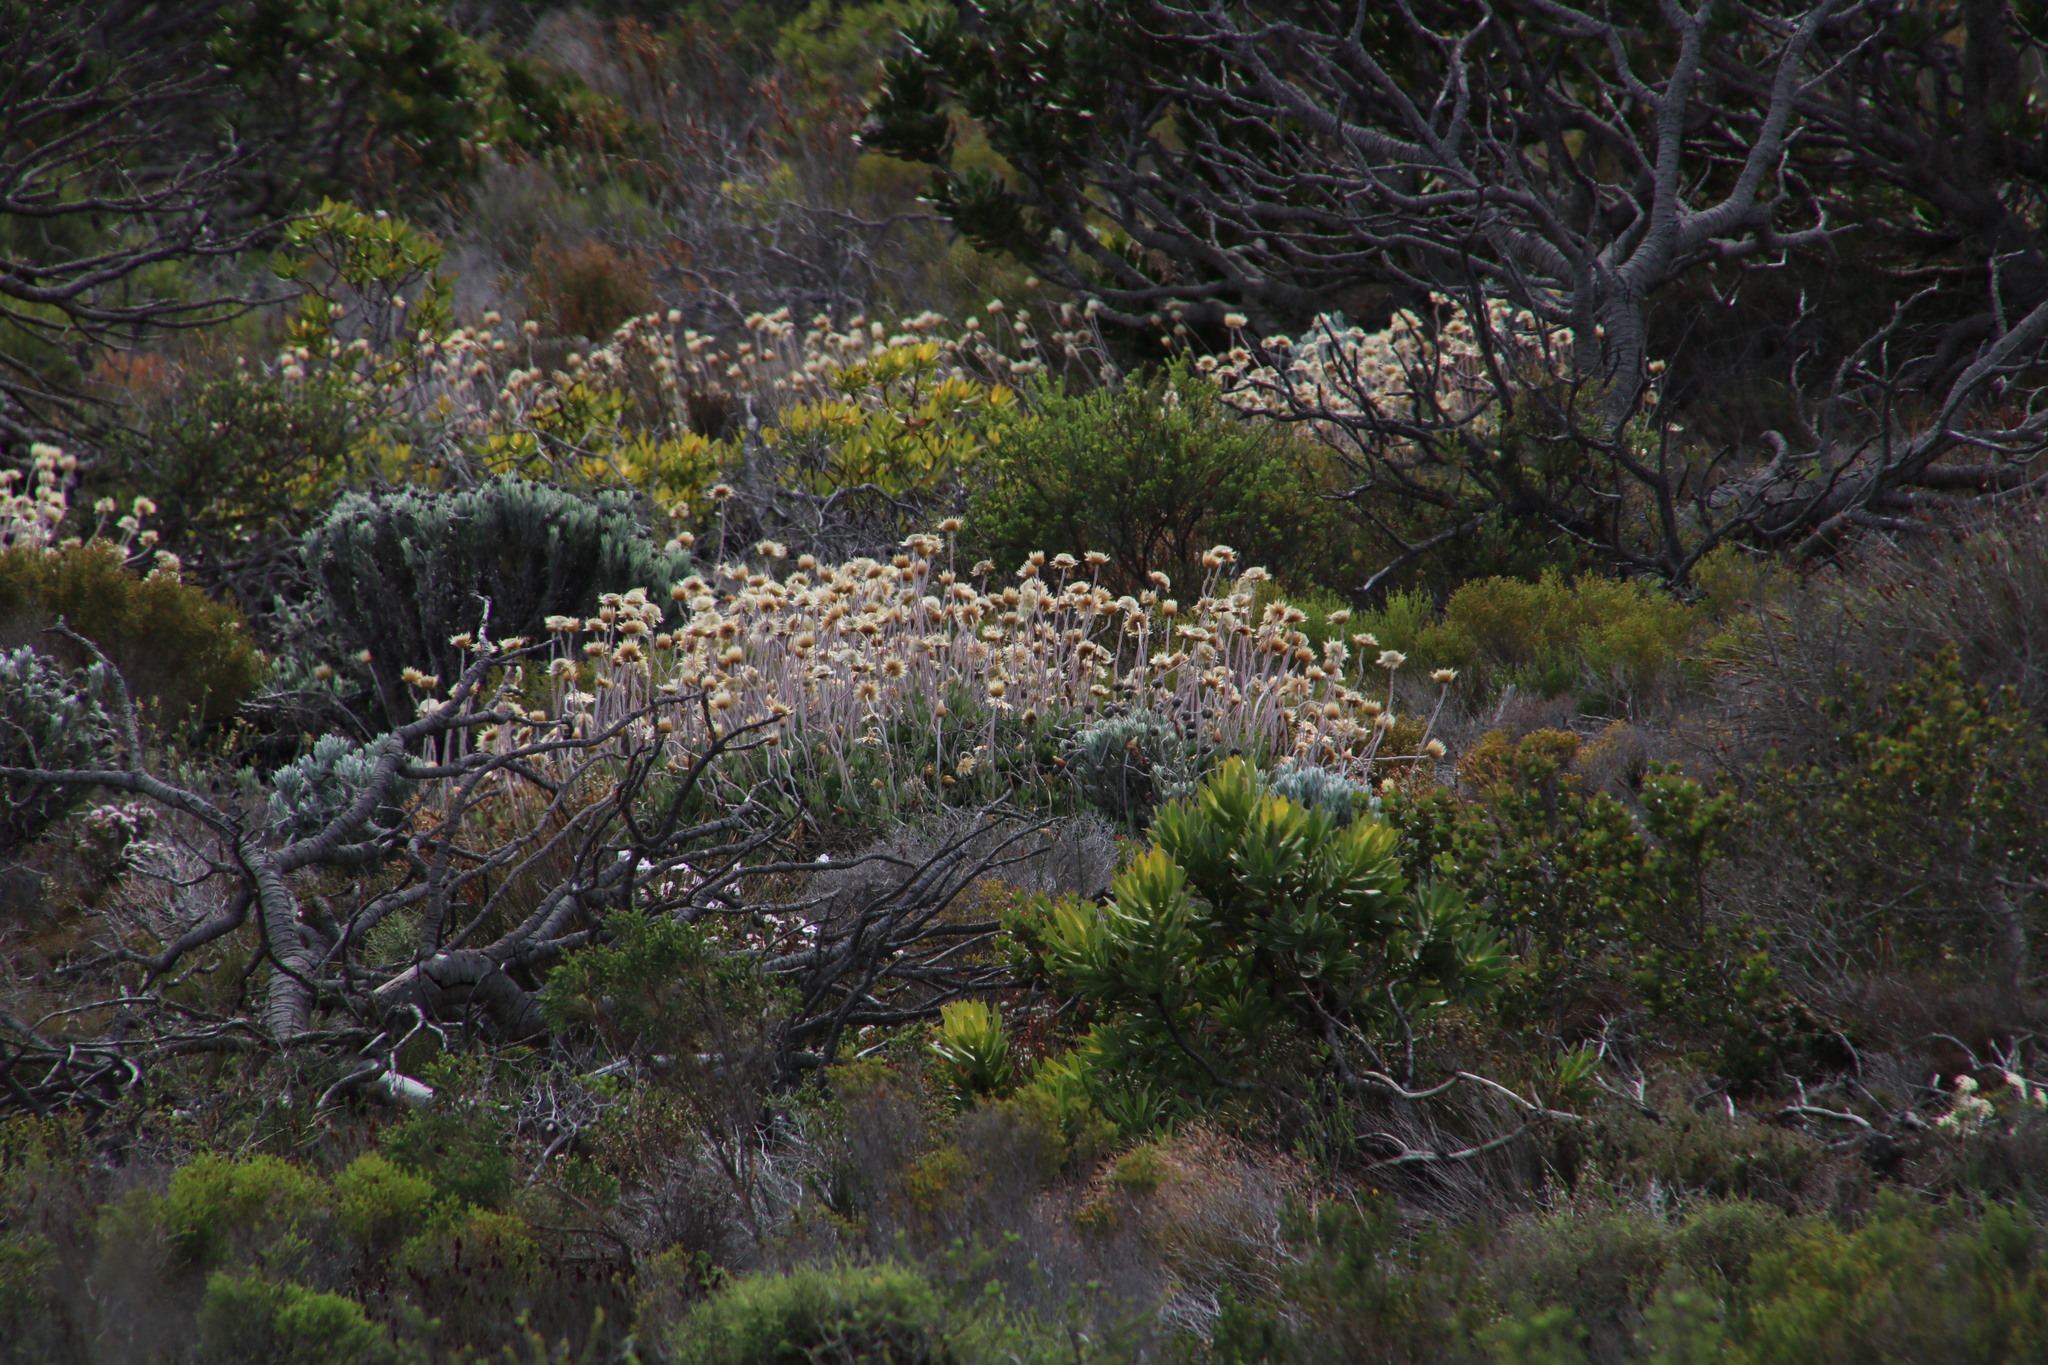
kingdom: Plantae
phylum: Tracheophyta
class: Magnoliopsida
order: Asterales
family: Asteraceae
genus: Syncarpha
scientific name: Syncarpha speciosissima
